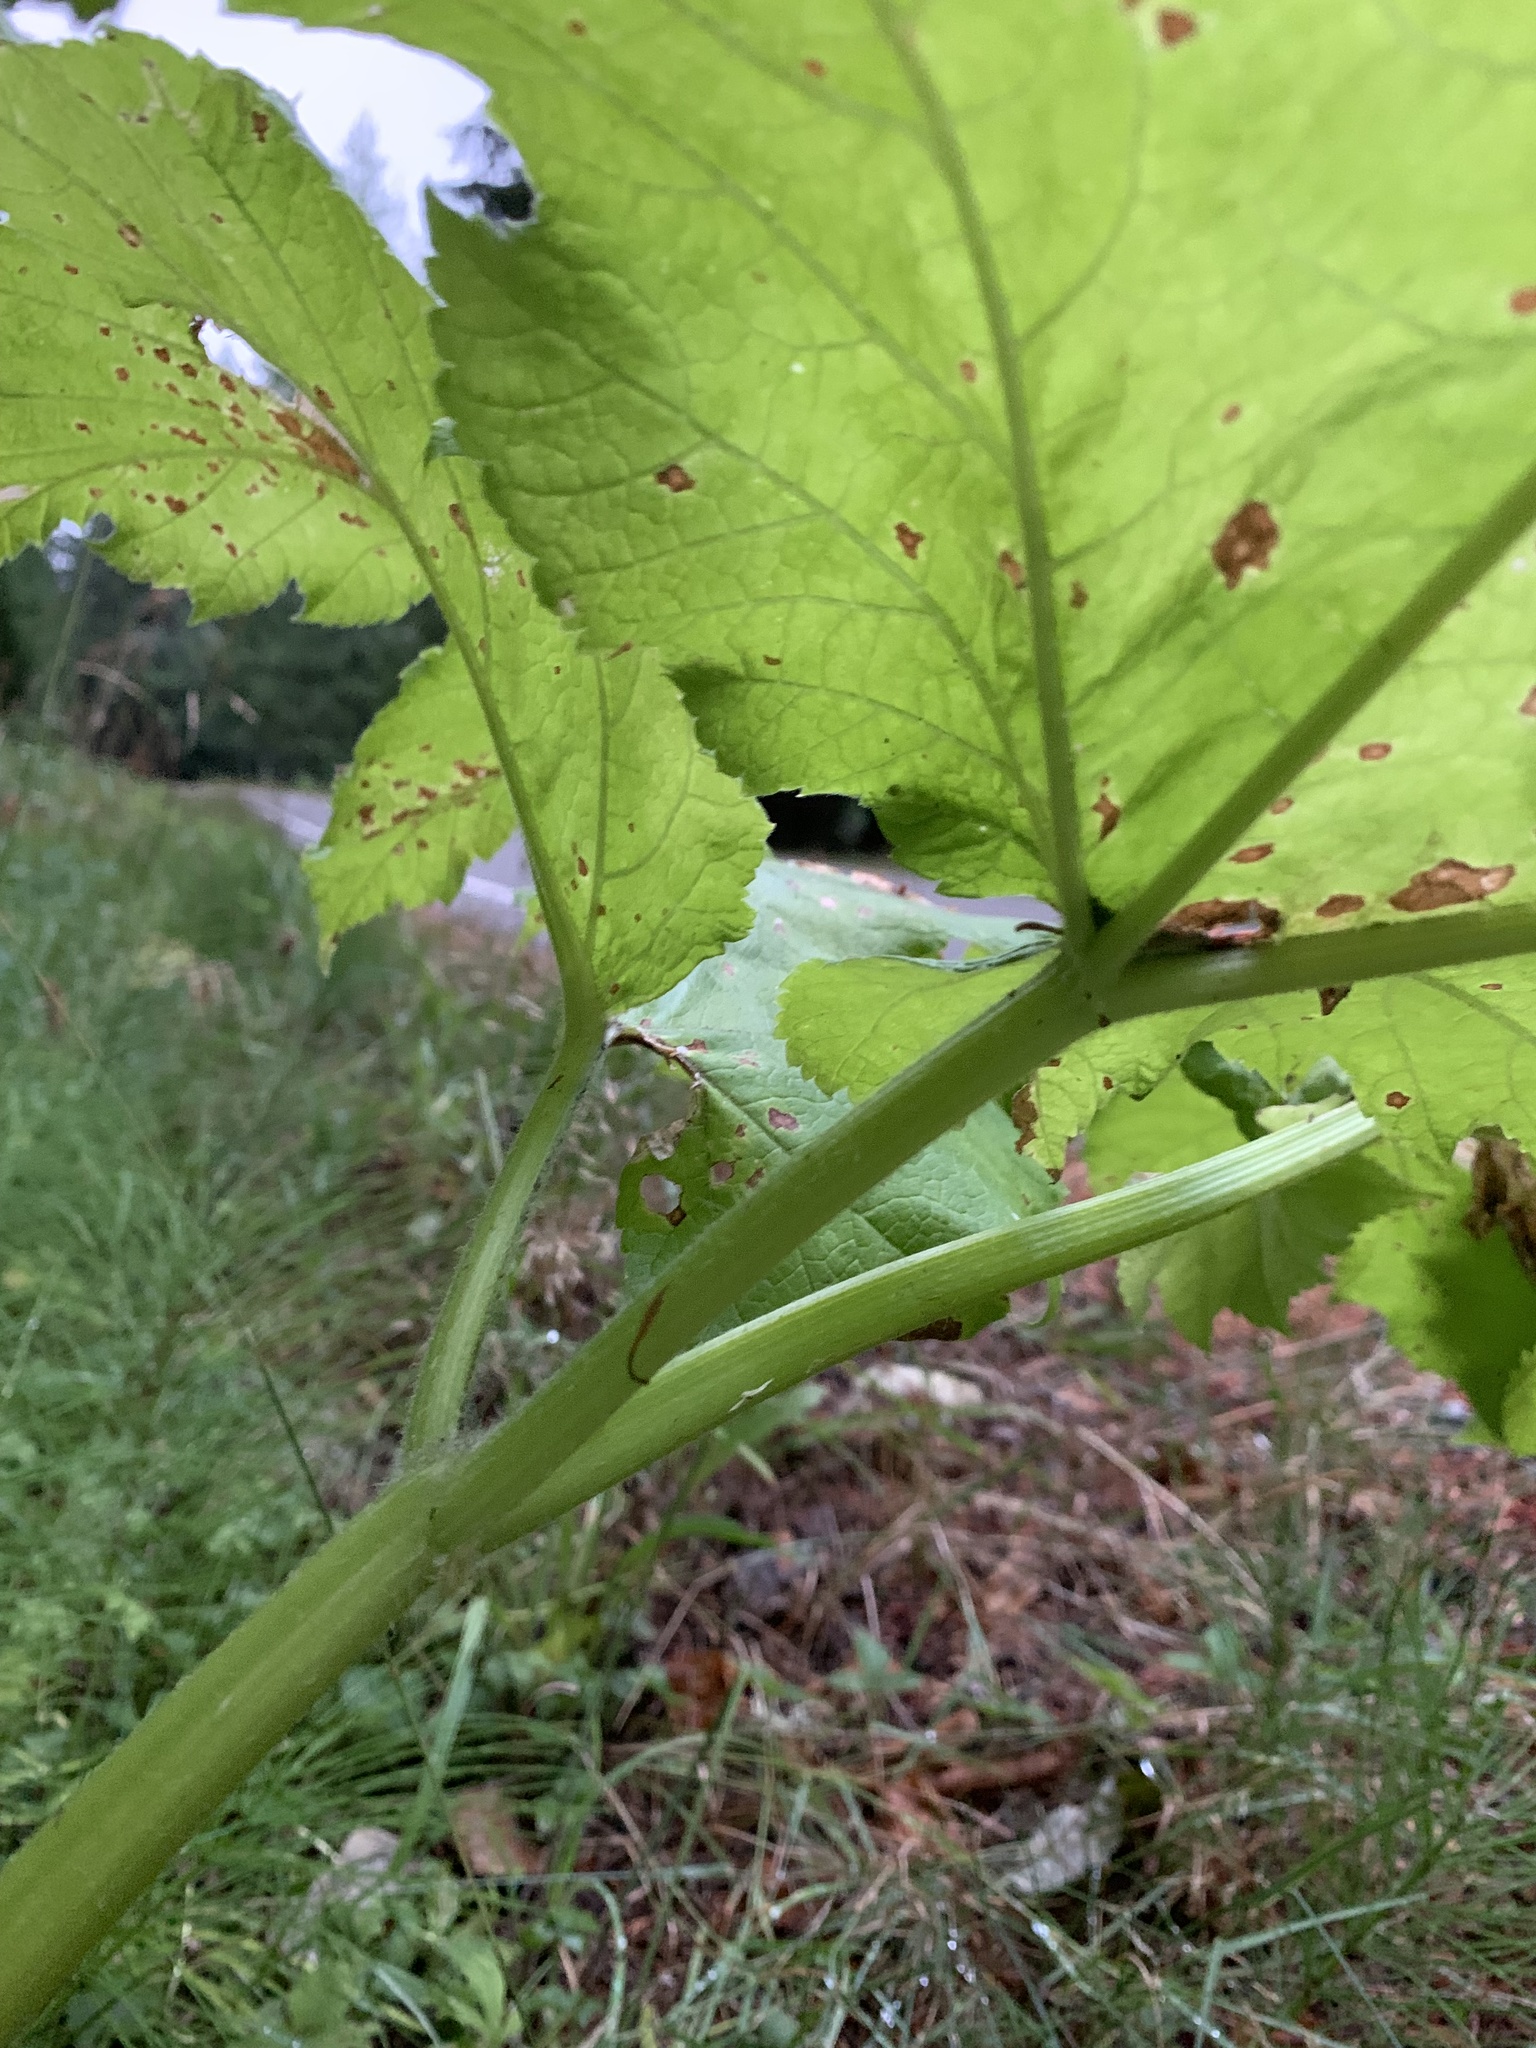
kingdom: Plantae
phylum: Tracheophyta
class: Magnoliopsida
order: Apiales
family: Apiaceae
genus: Heracleum
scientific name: Heracleum maximum
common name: American cow parsnip
